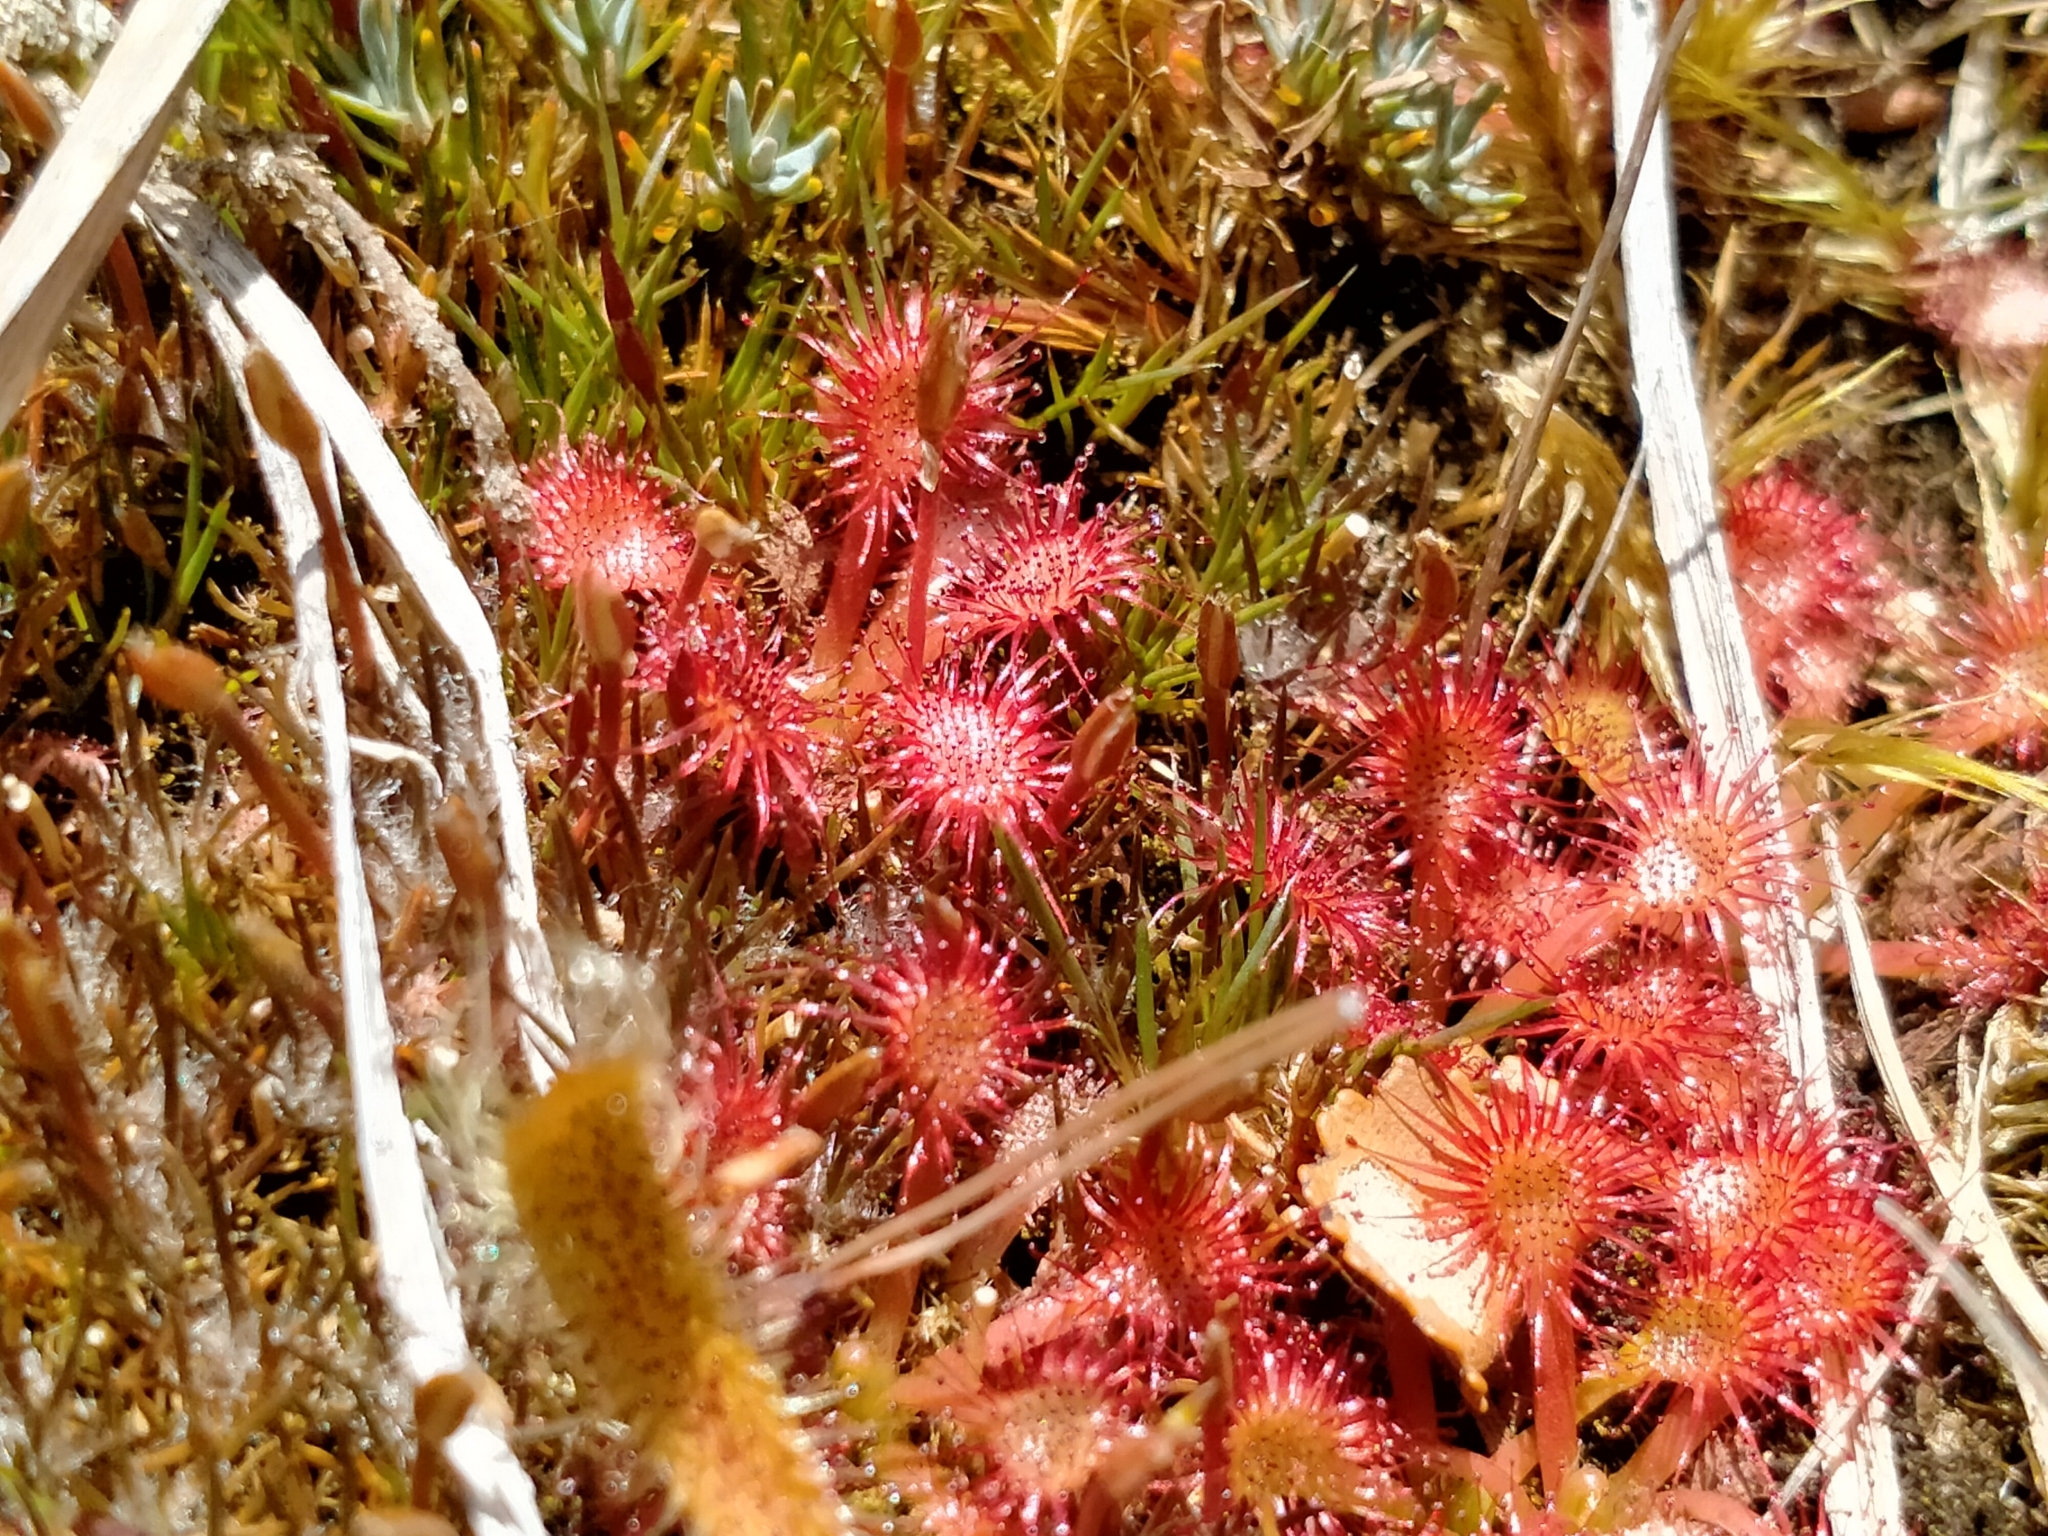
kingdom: Plantae
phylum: Tracheophyta
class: Magnoliopsida
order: Caryophyllales
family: Droseraceae
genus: Drosera
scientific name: Drosera spatulata
